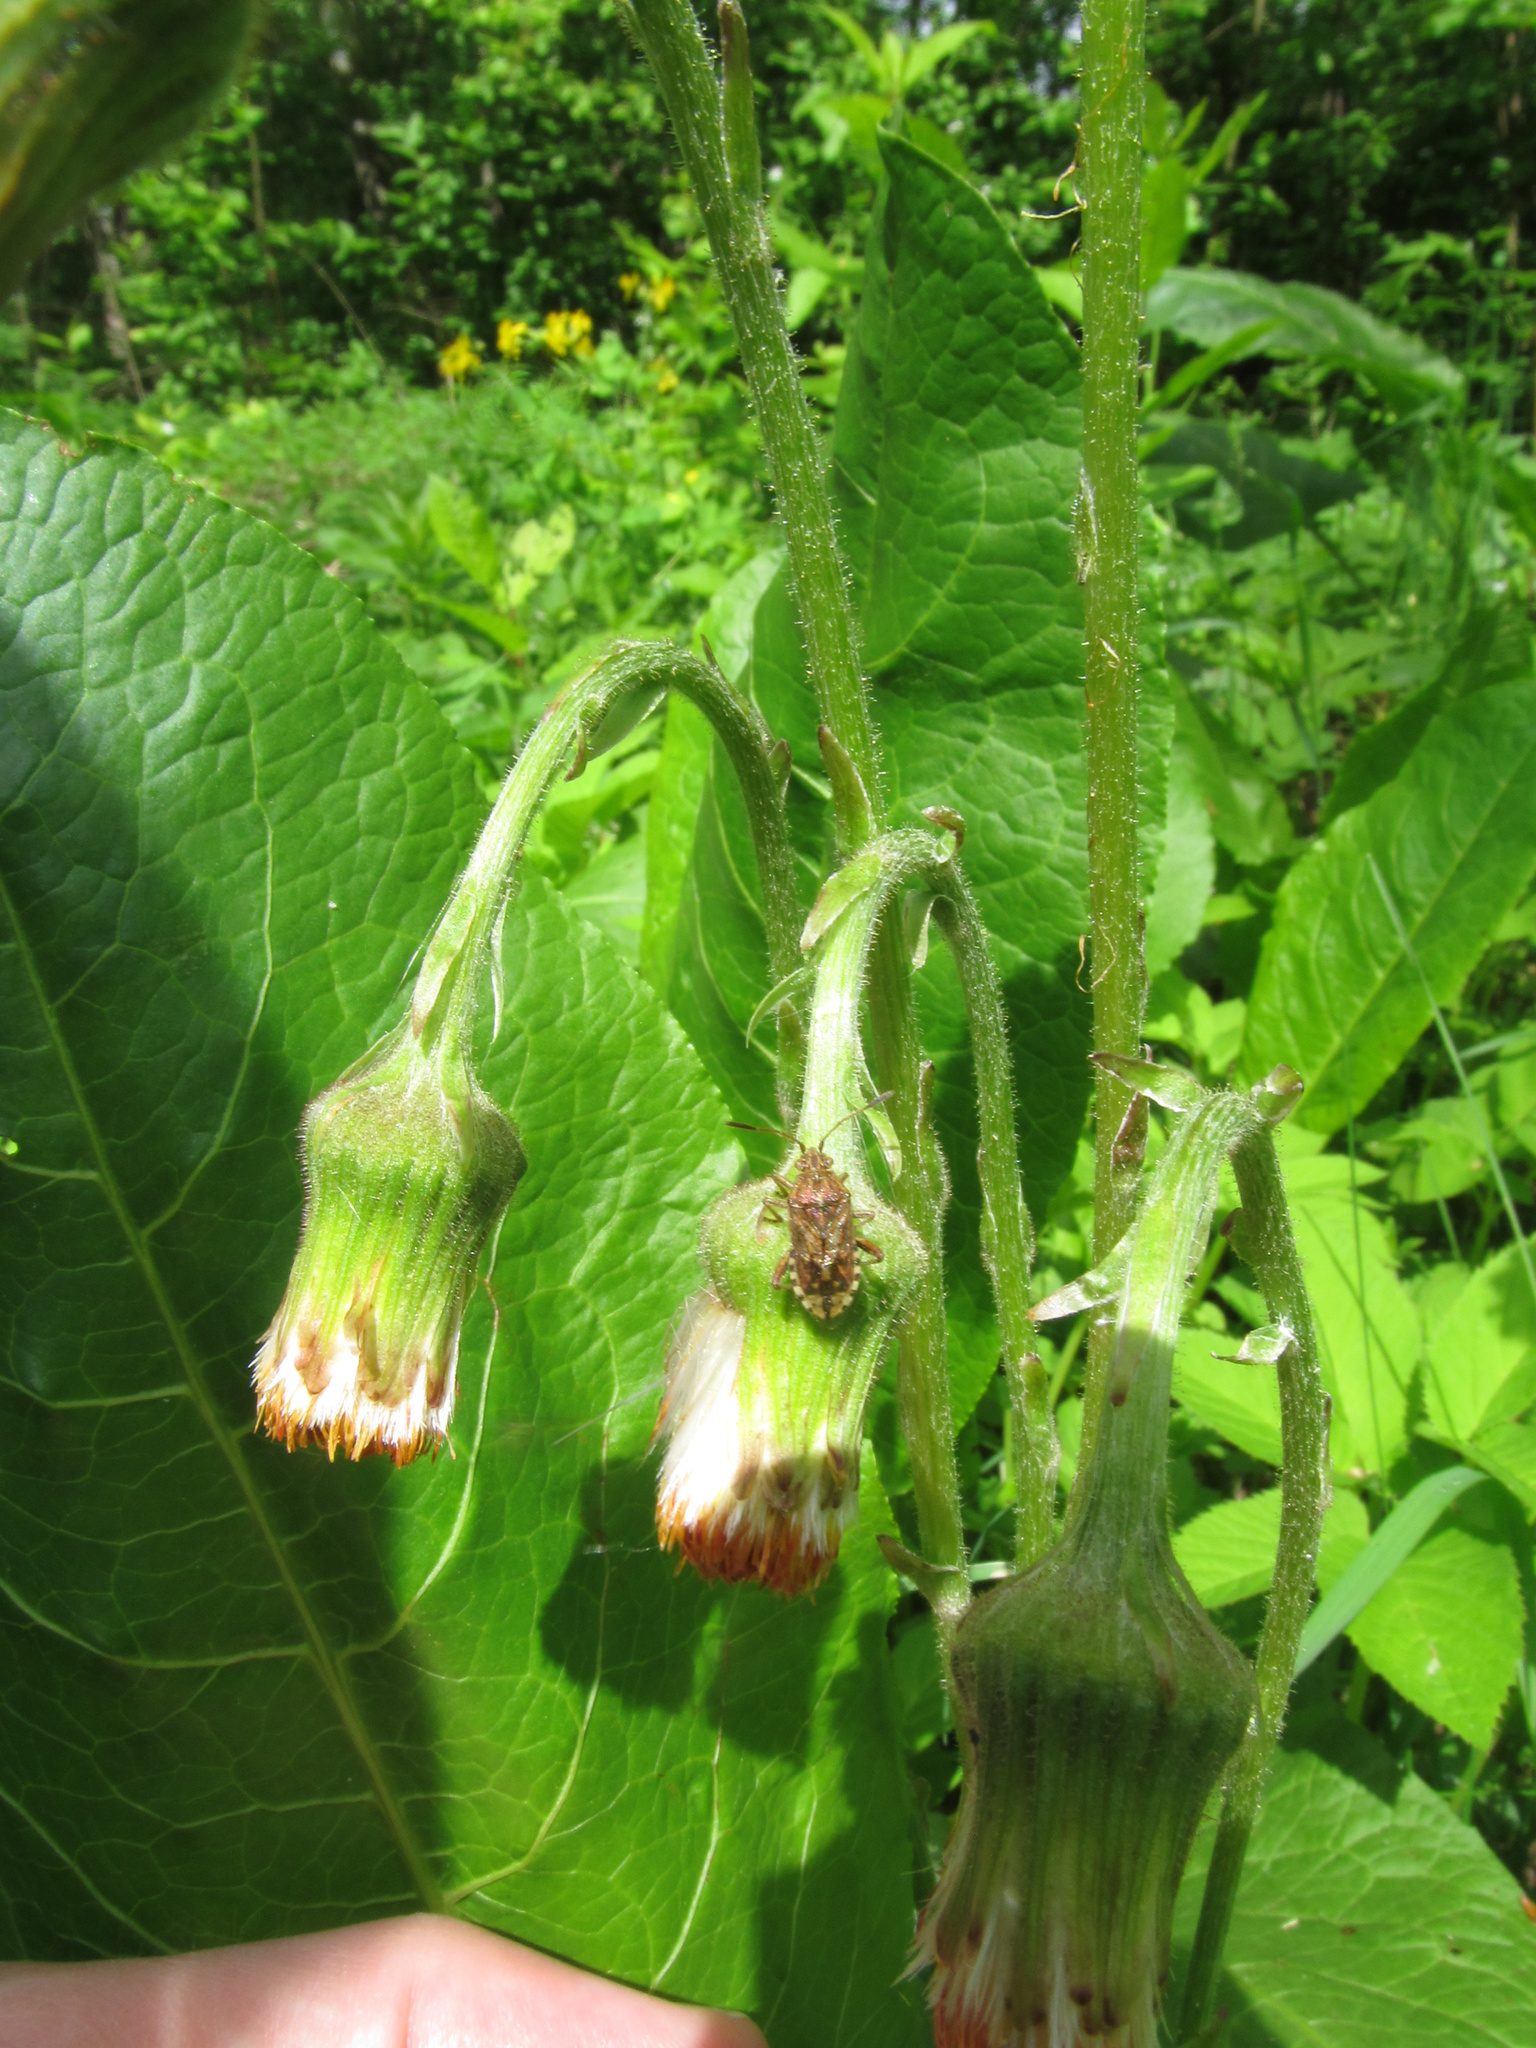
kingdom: Plantae
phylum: Tracheophyta
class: Magnoliopsida
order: Asterales
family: Asteraceae
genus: Tussilago
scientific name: Tussilago farfara
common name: Coltsfoot
